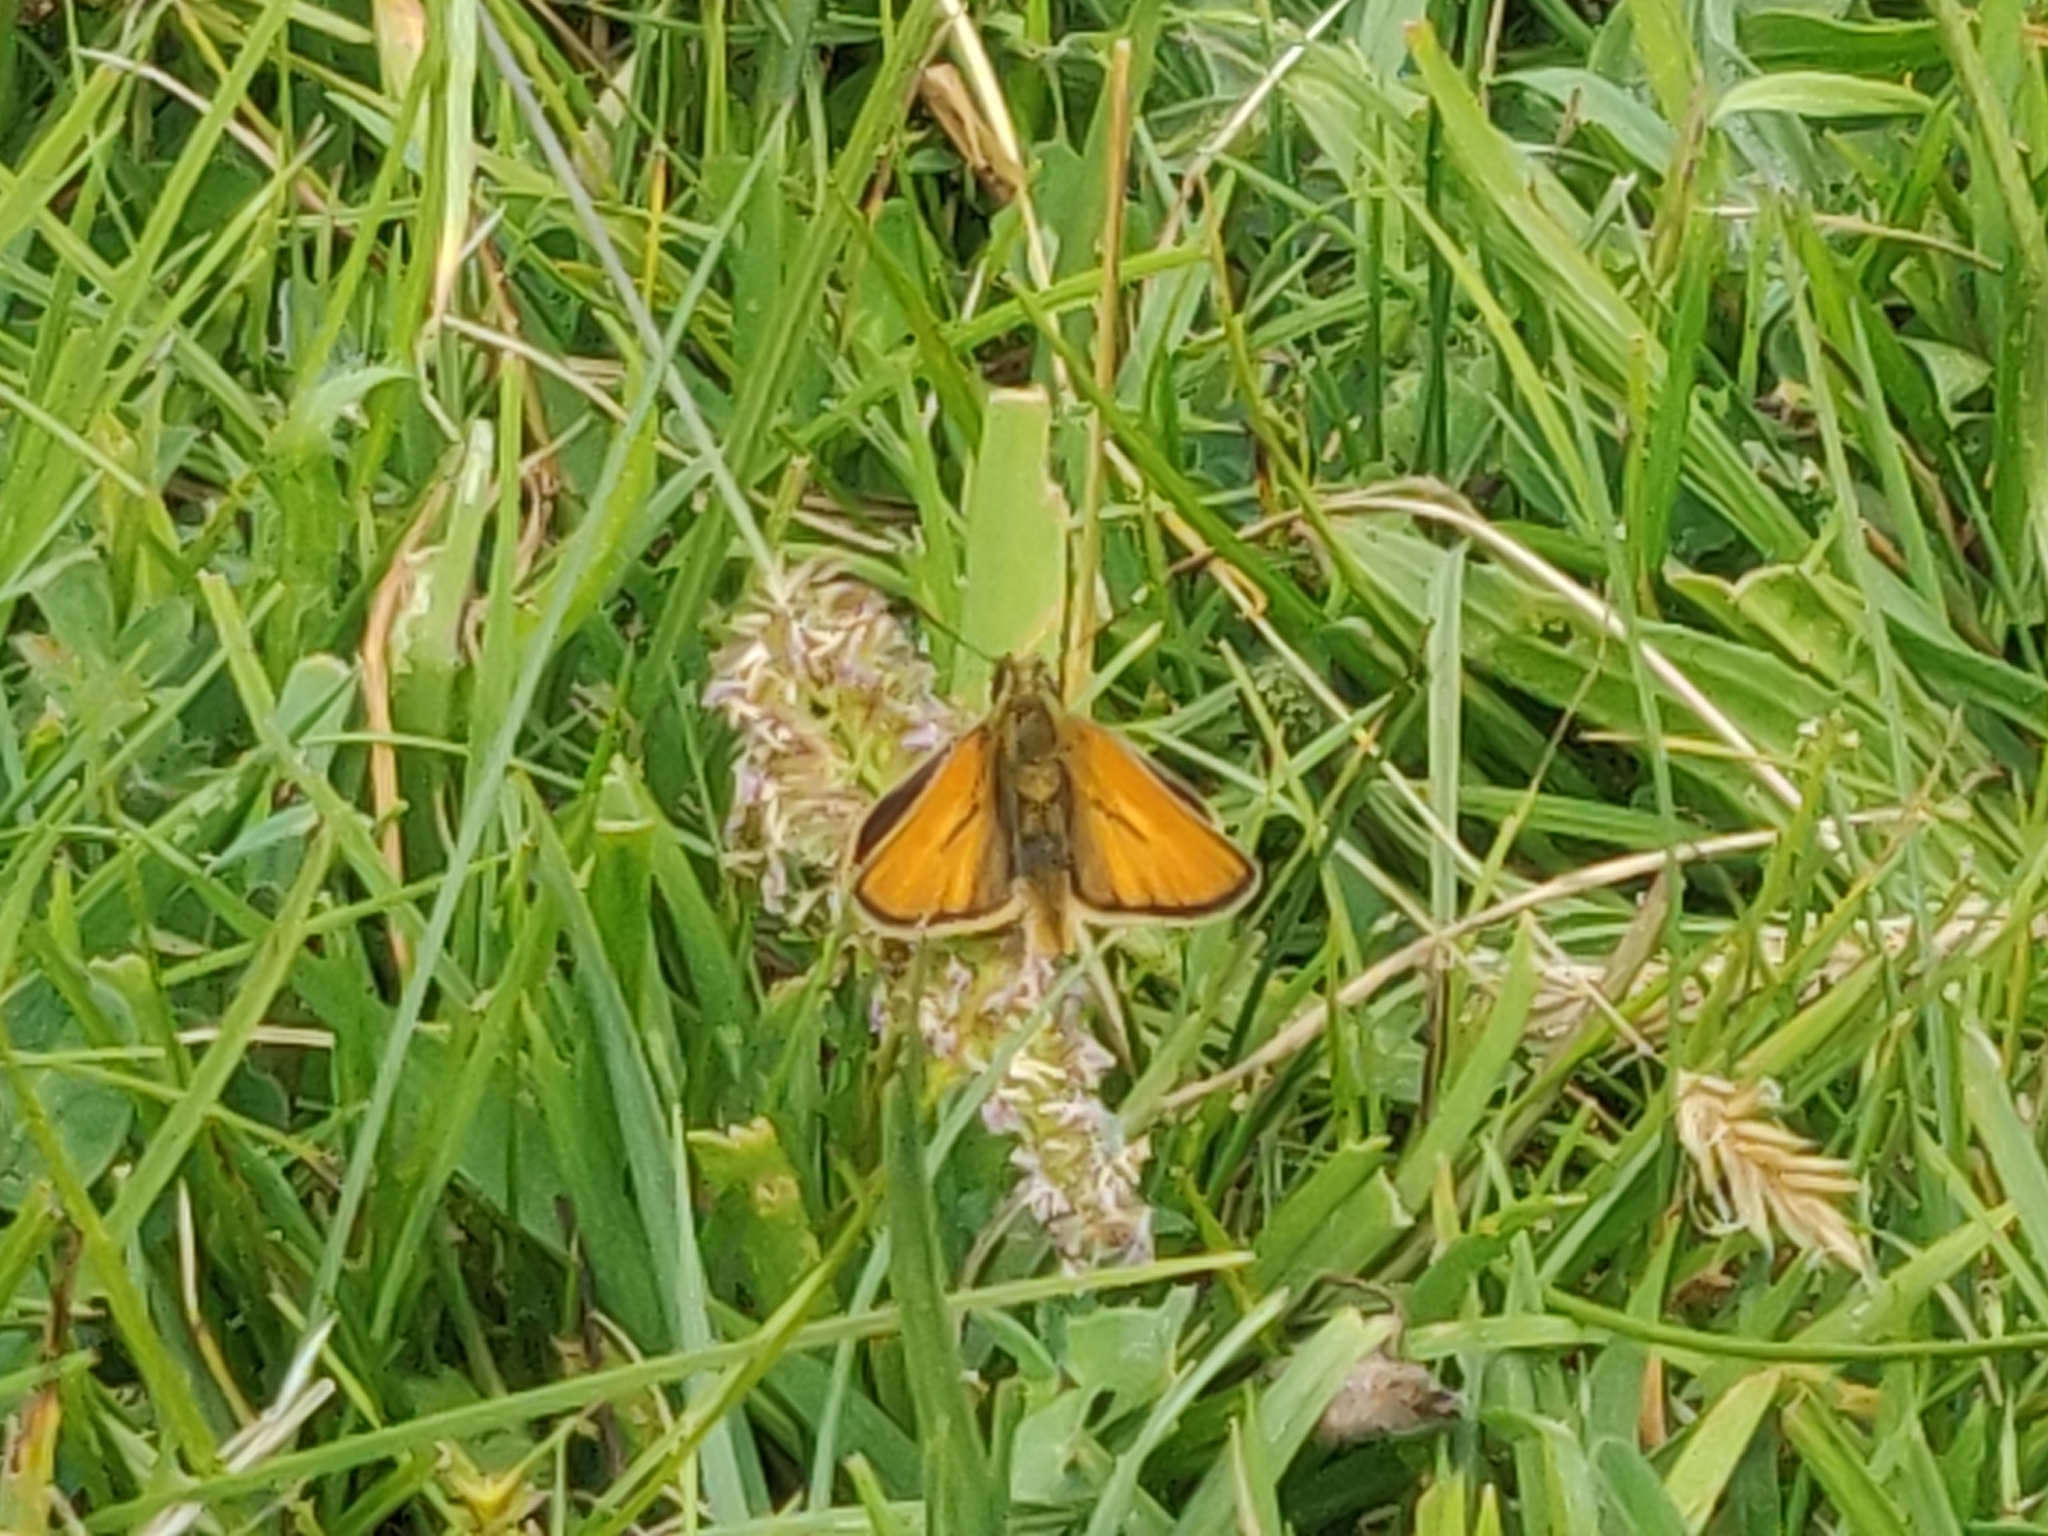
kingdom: Animalia
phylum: Arthropoda
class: Insecta
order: Lepidoptera
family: Hesperiidae
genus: Thymelicus
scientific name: Thymelicus sylvestris
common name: Small skipper
